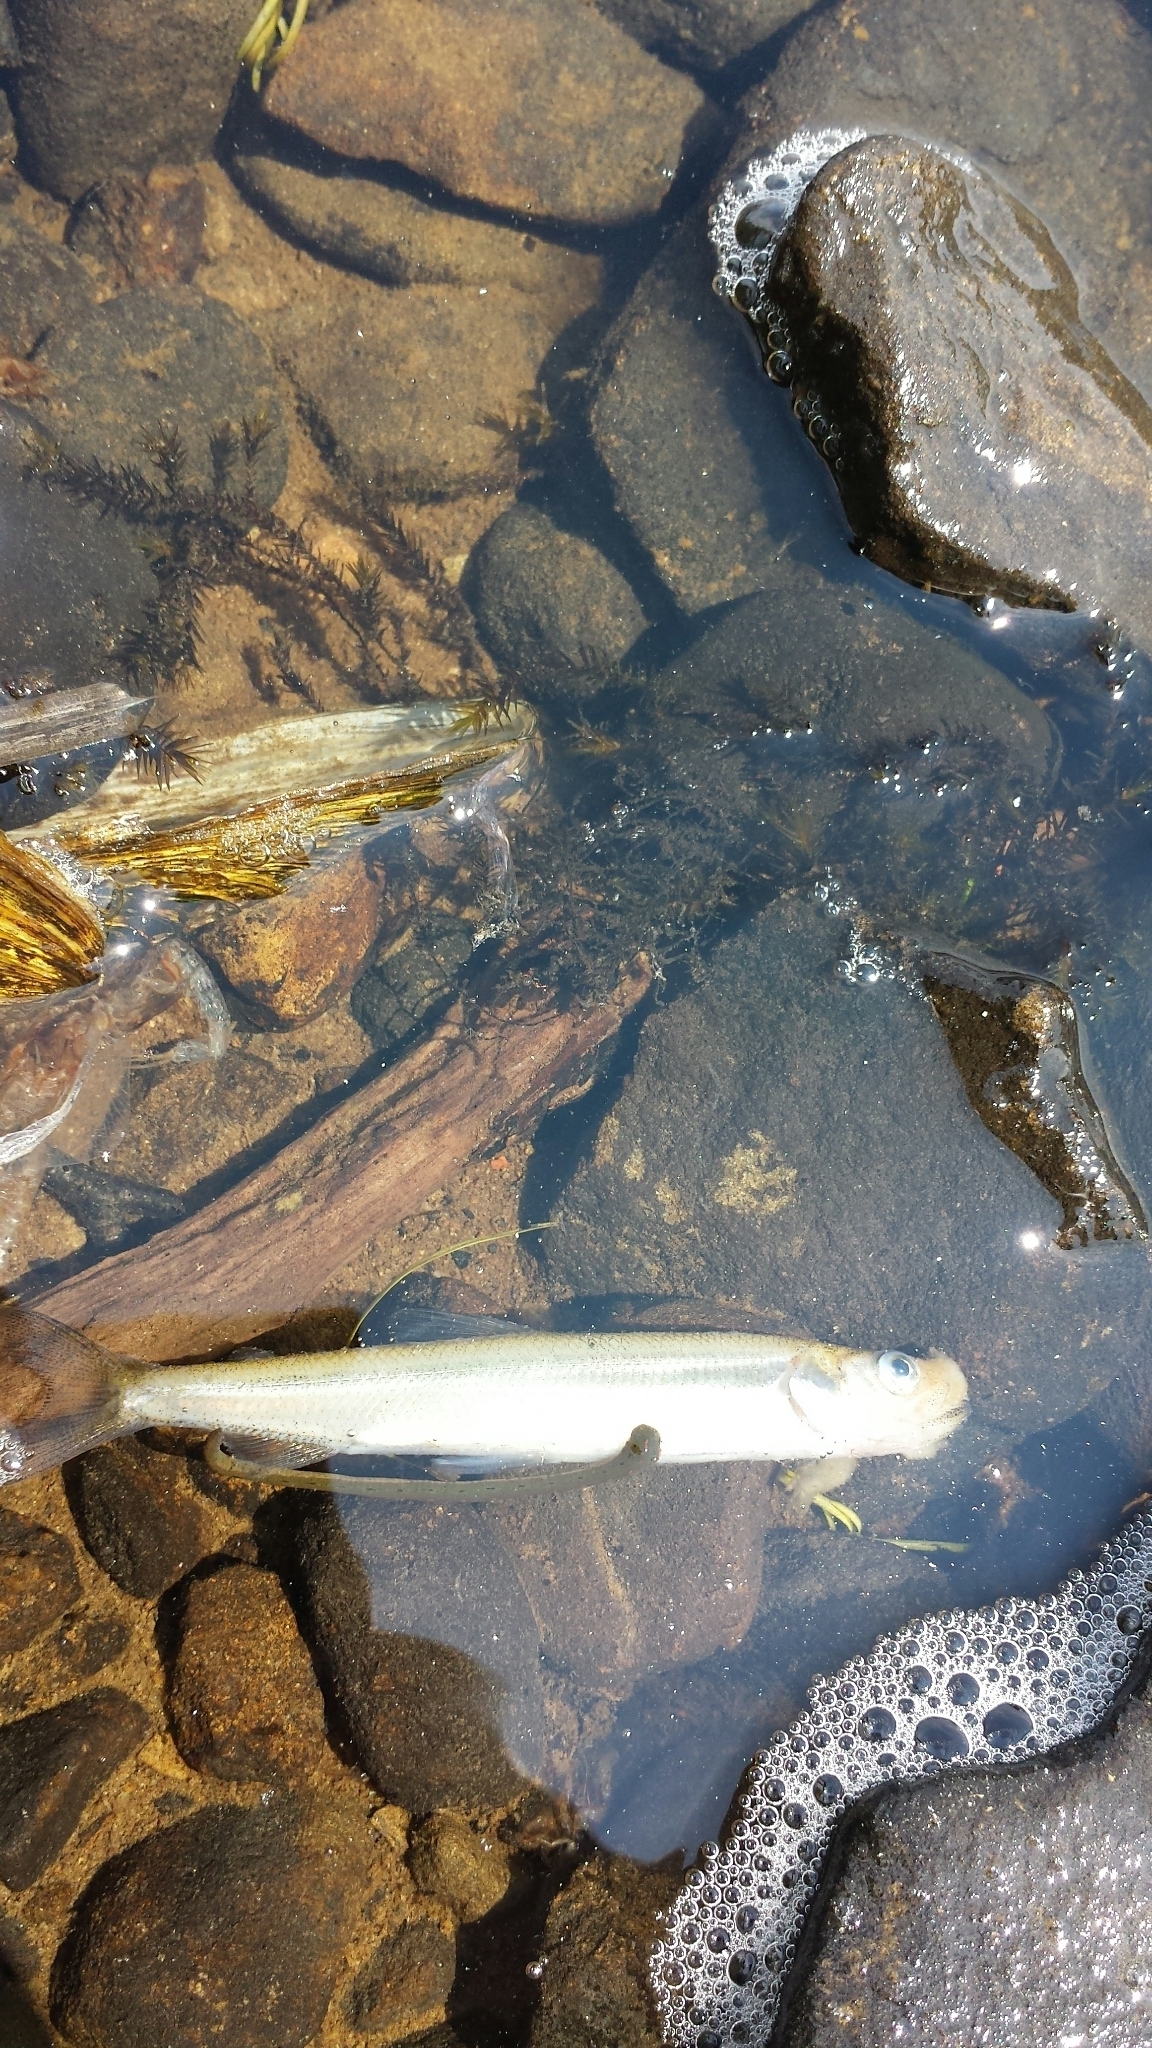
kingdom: Animalia
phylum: Chordata
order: Osmeriformes
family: Osmeridae
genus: Osmerus
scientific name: Osmerus mordax
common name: Rainbow smelt
